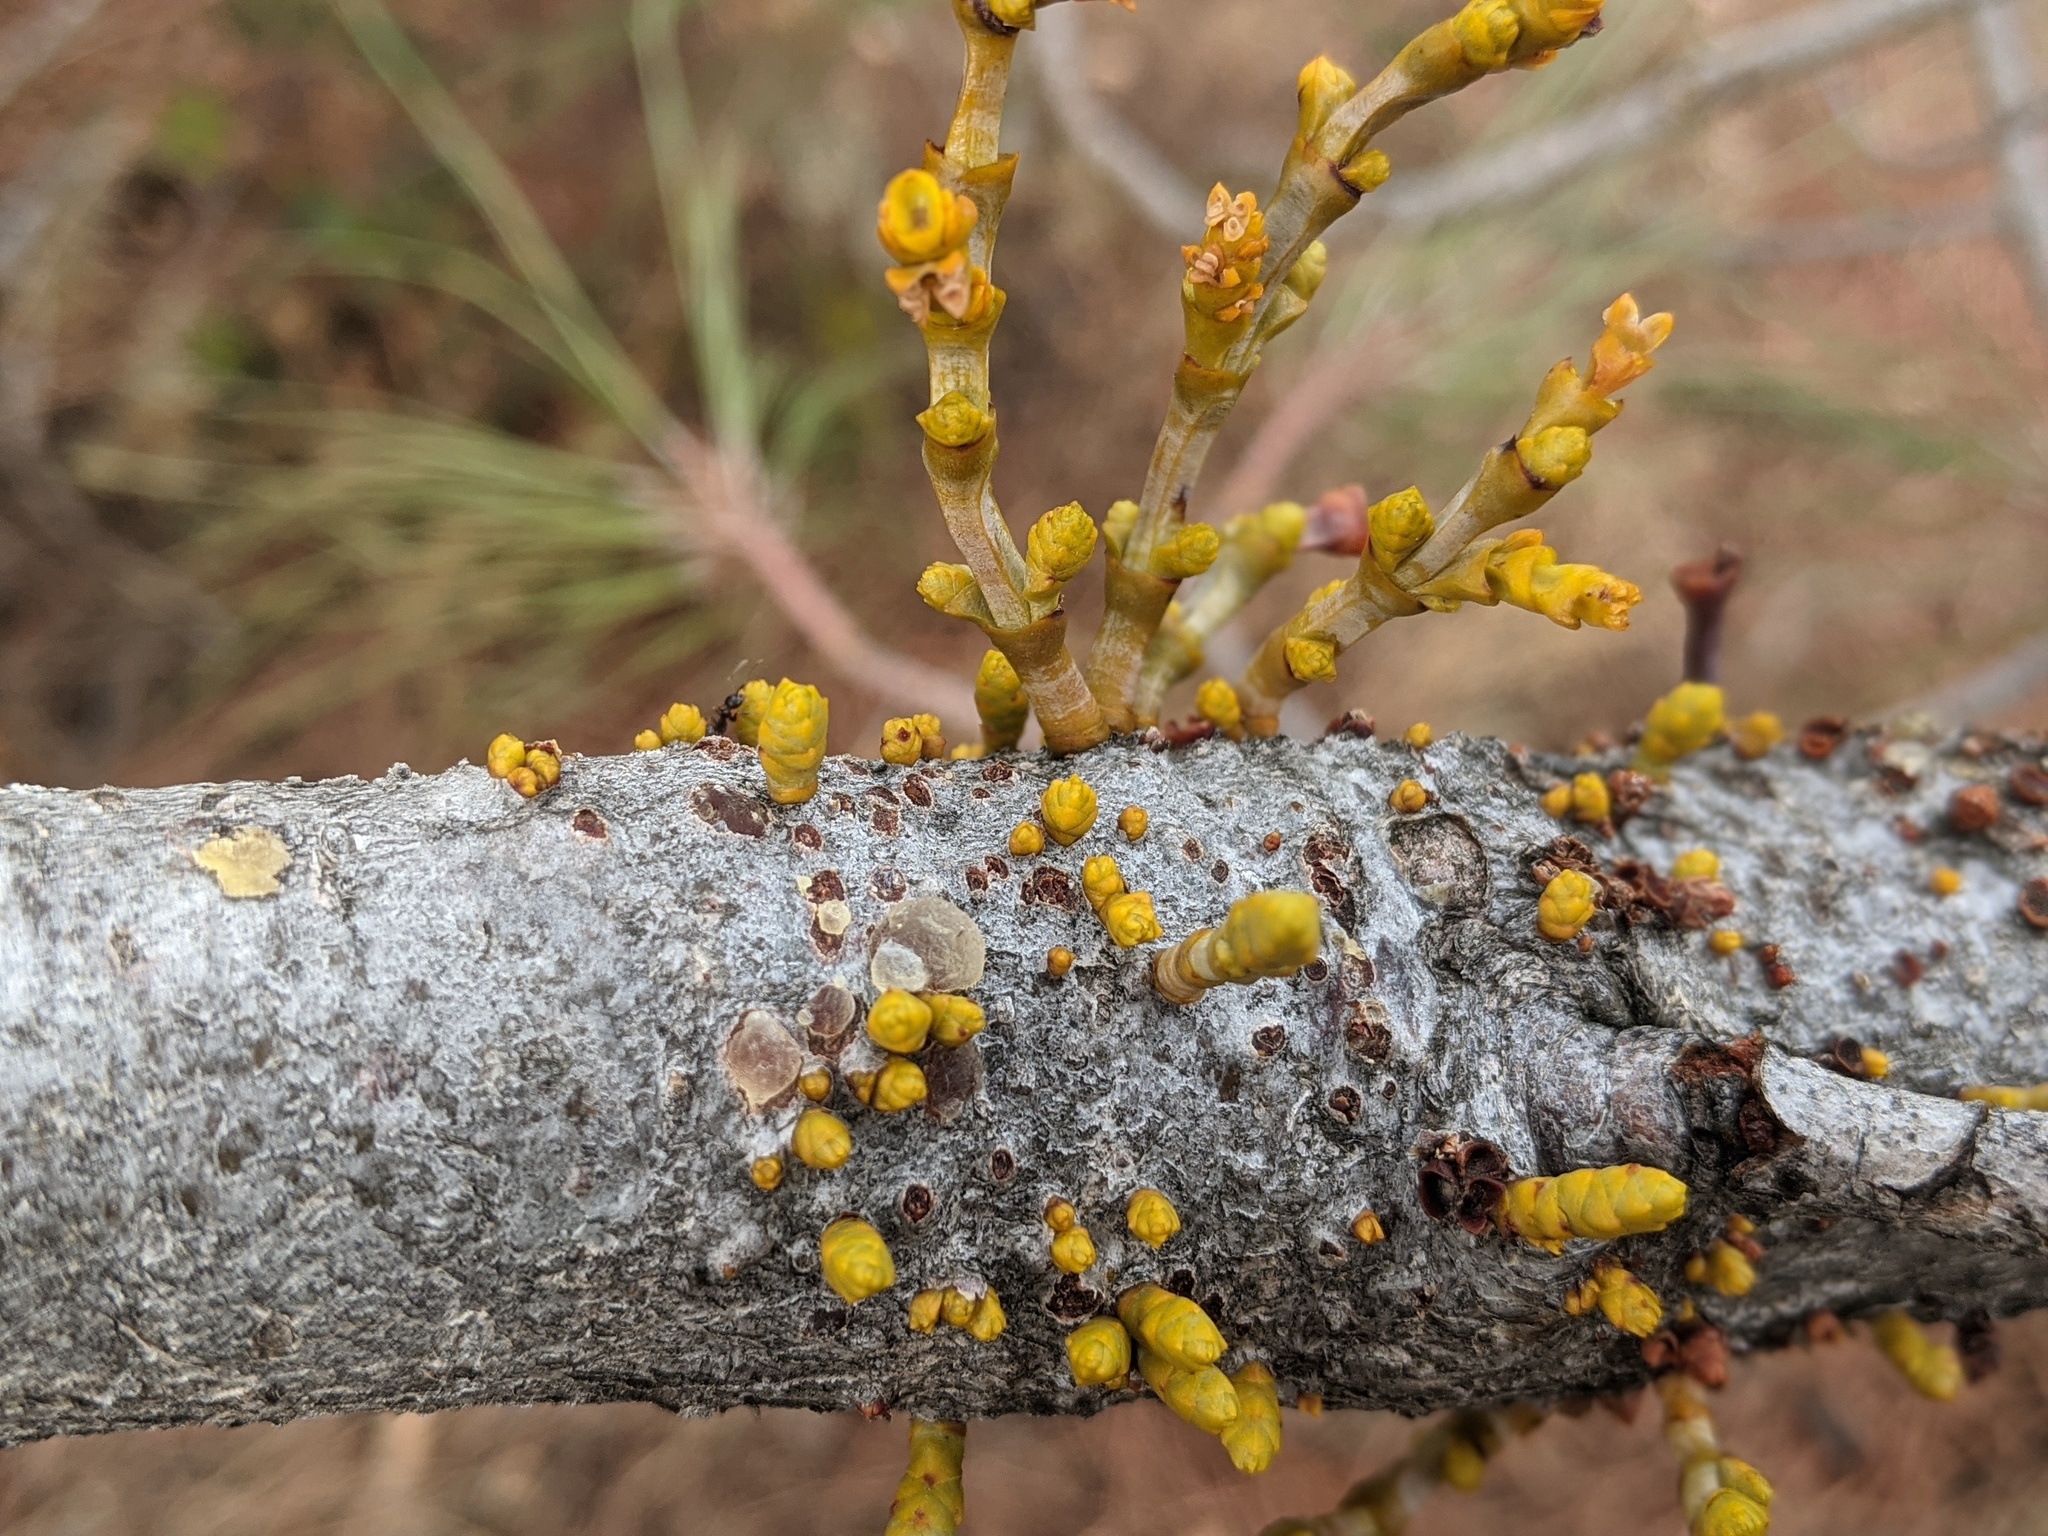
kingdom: Plantae
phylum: Tracheophyta
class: Magnoliopsida
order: Santalales
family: Viscaceae
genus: Arceuthobium
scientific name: Arceuthobium campylopodum
